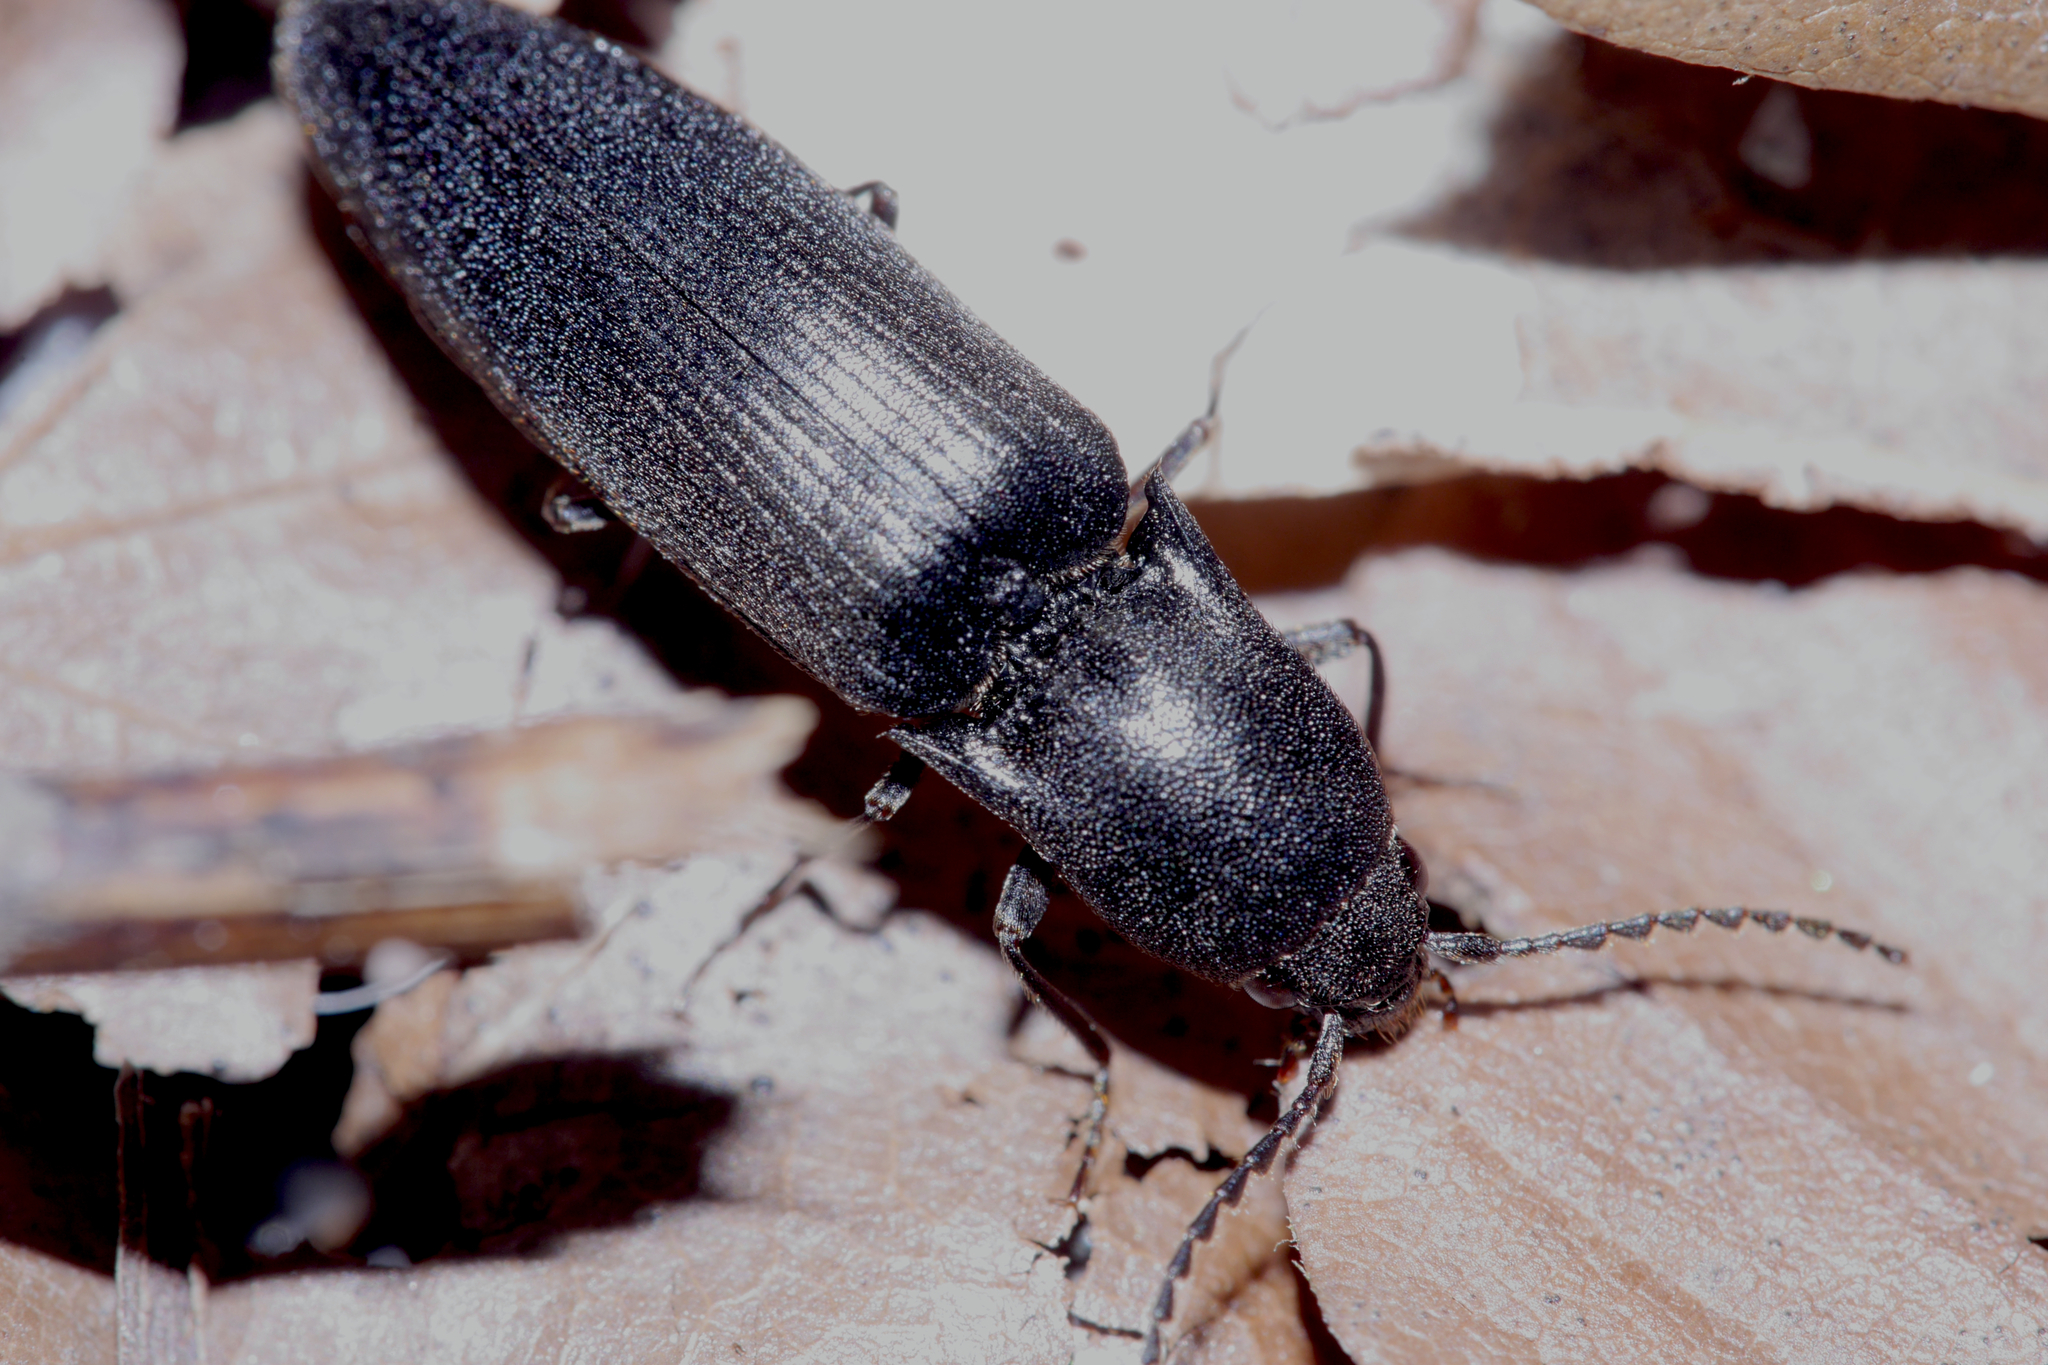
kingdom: Animalia
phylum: Arthropoda
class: Insecta
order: Coleoptera
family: Elateridae
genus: Ectinus
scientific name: Ectinus aterrimus
